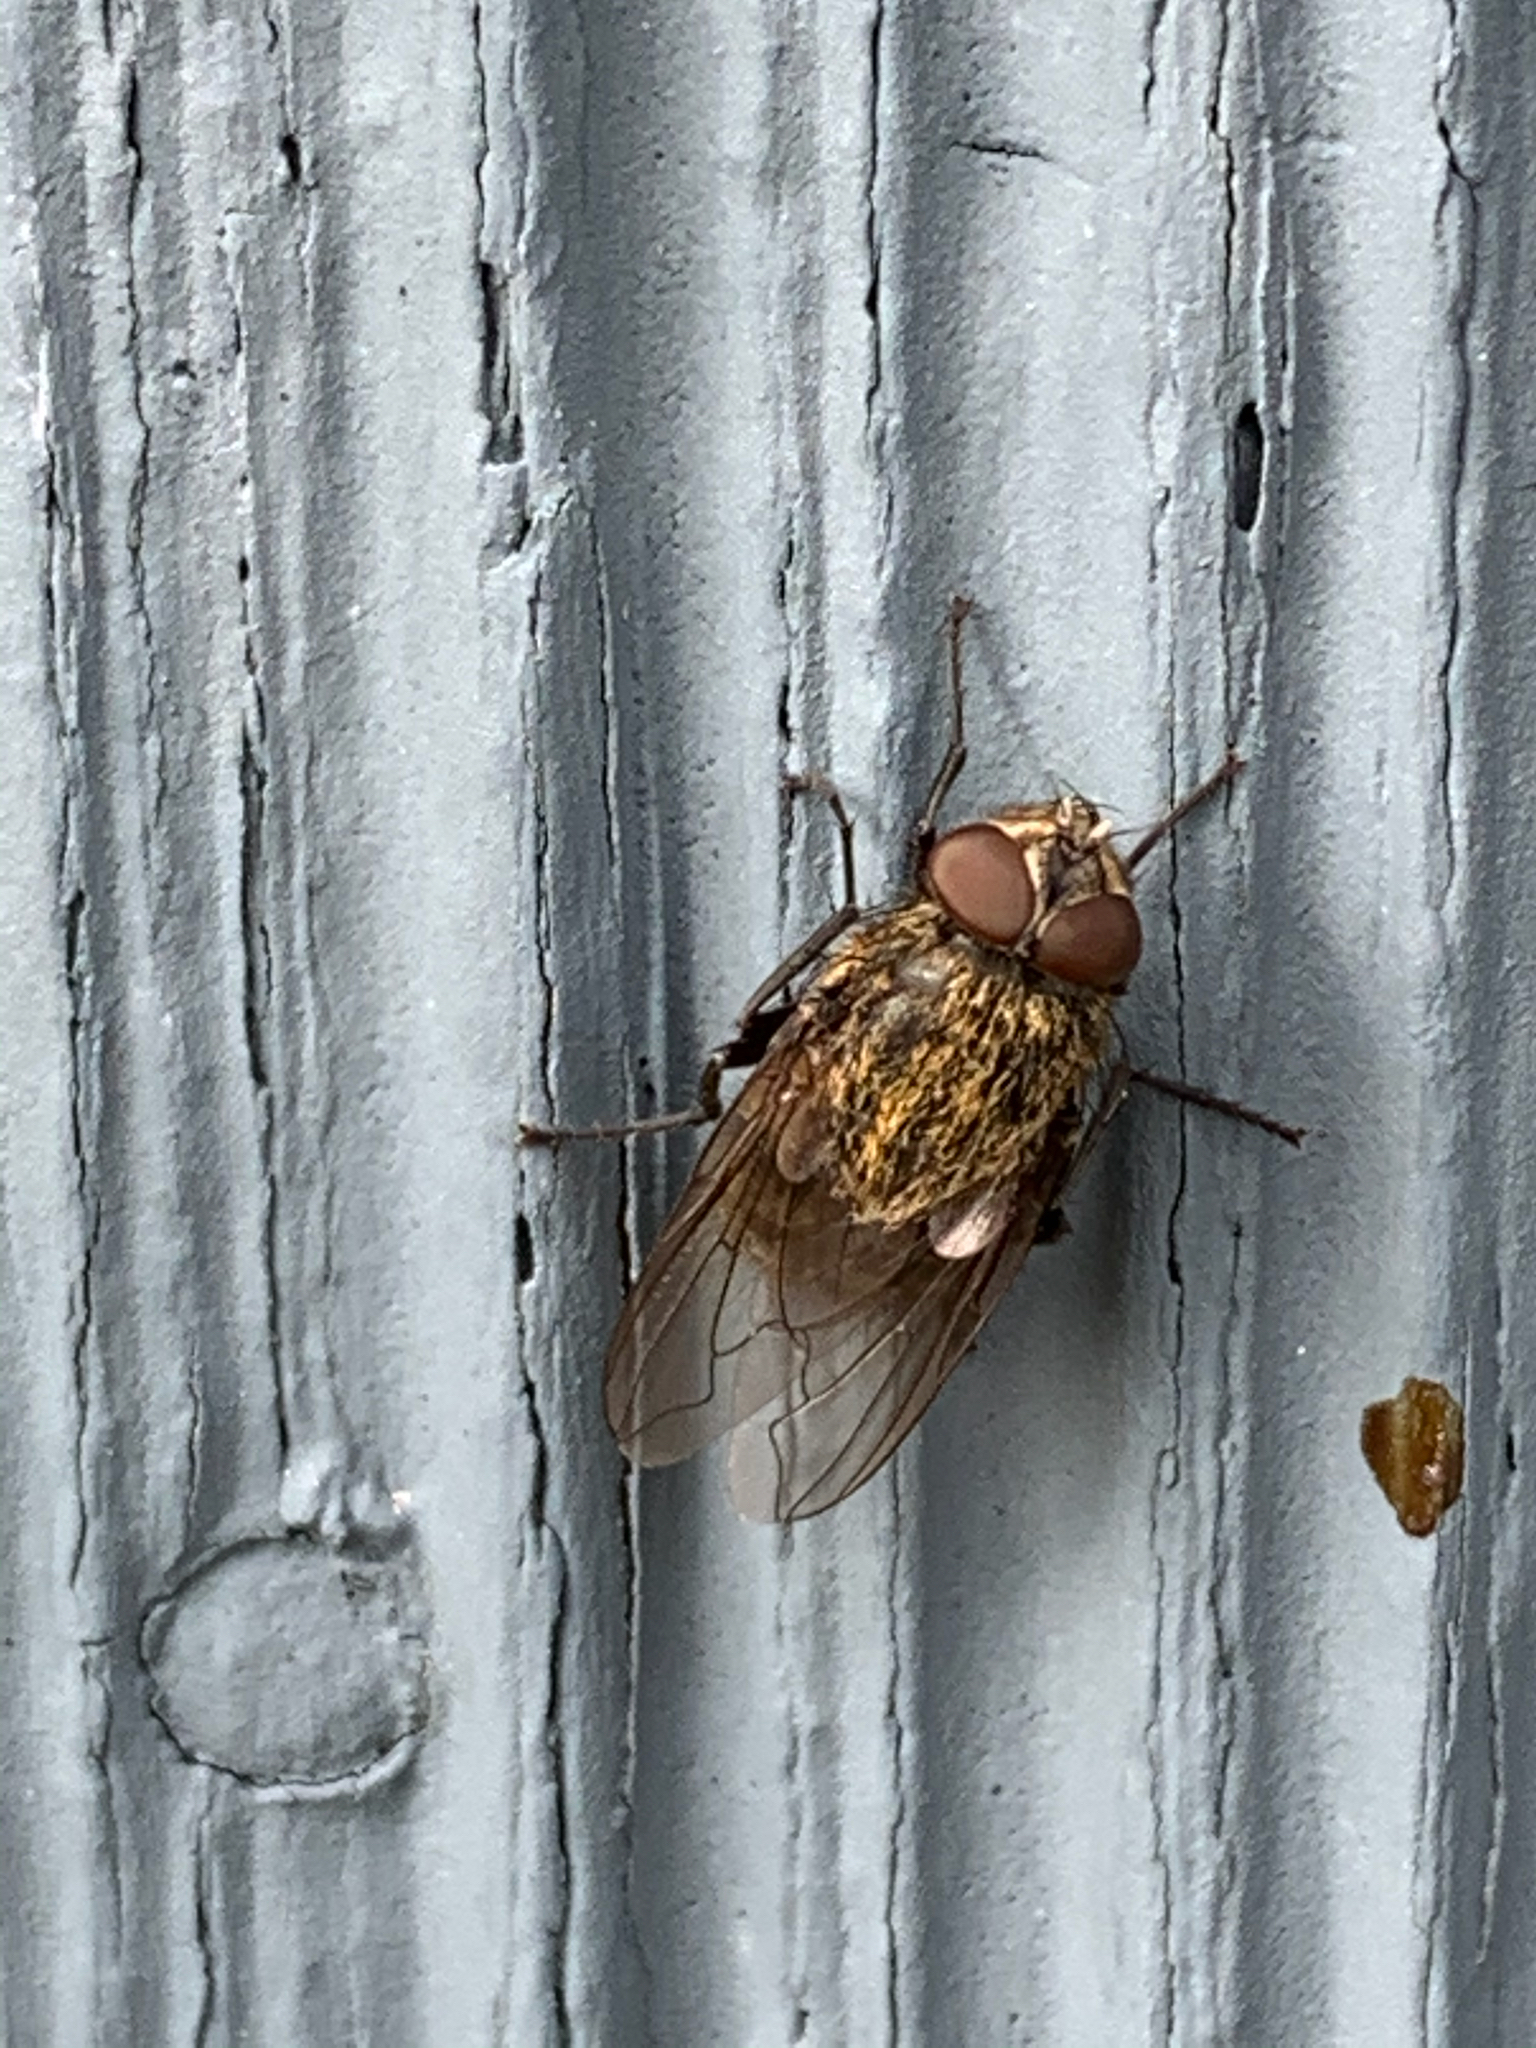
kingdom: Animalia
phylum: Arthropoda
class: Insecta
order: Diptera
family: Polleniidae
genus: Pollenia
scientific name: Pollenia
